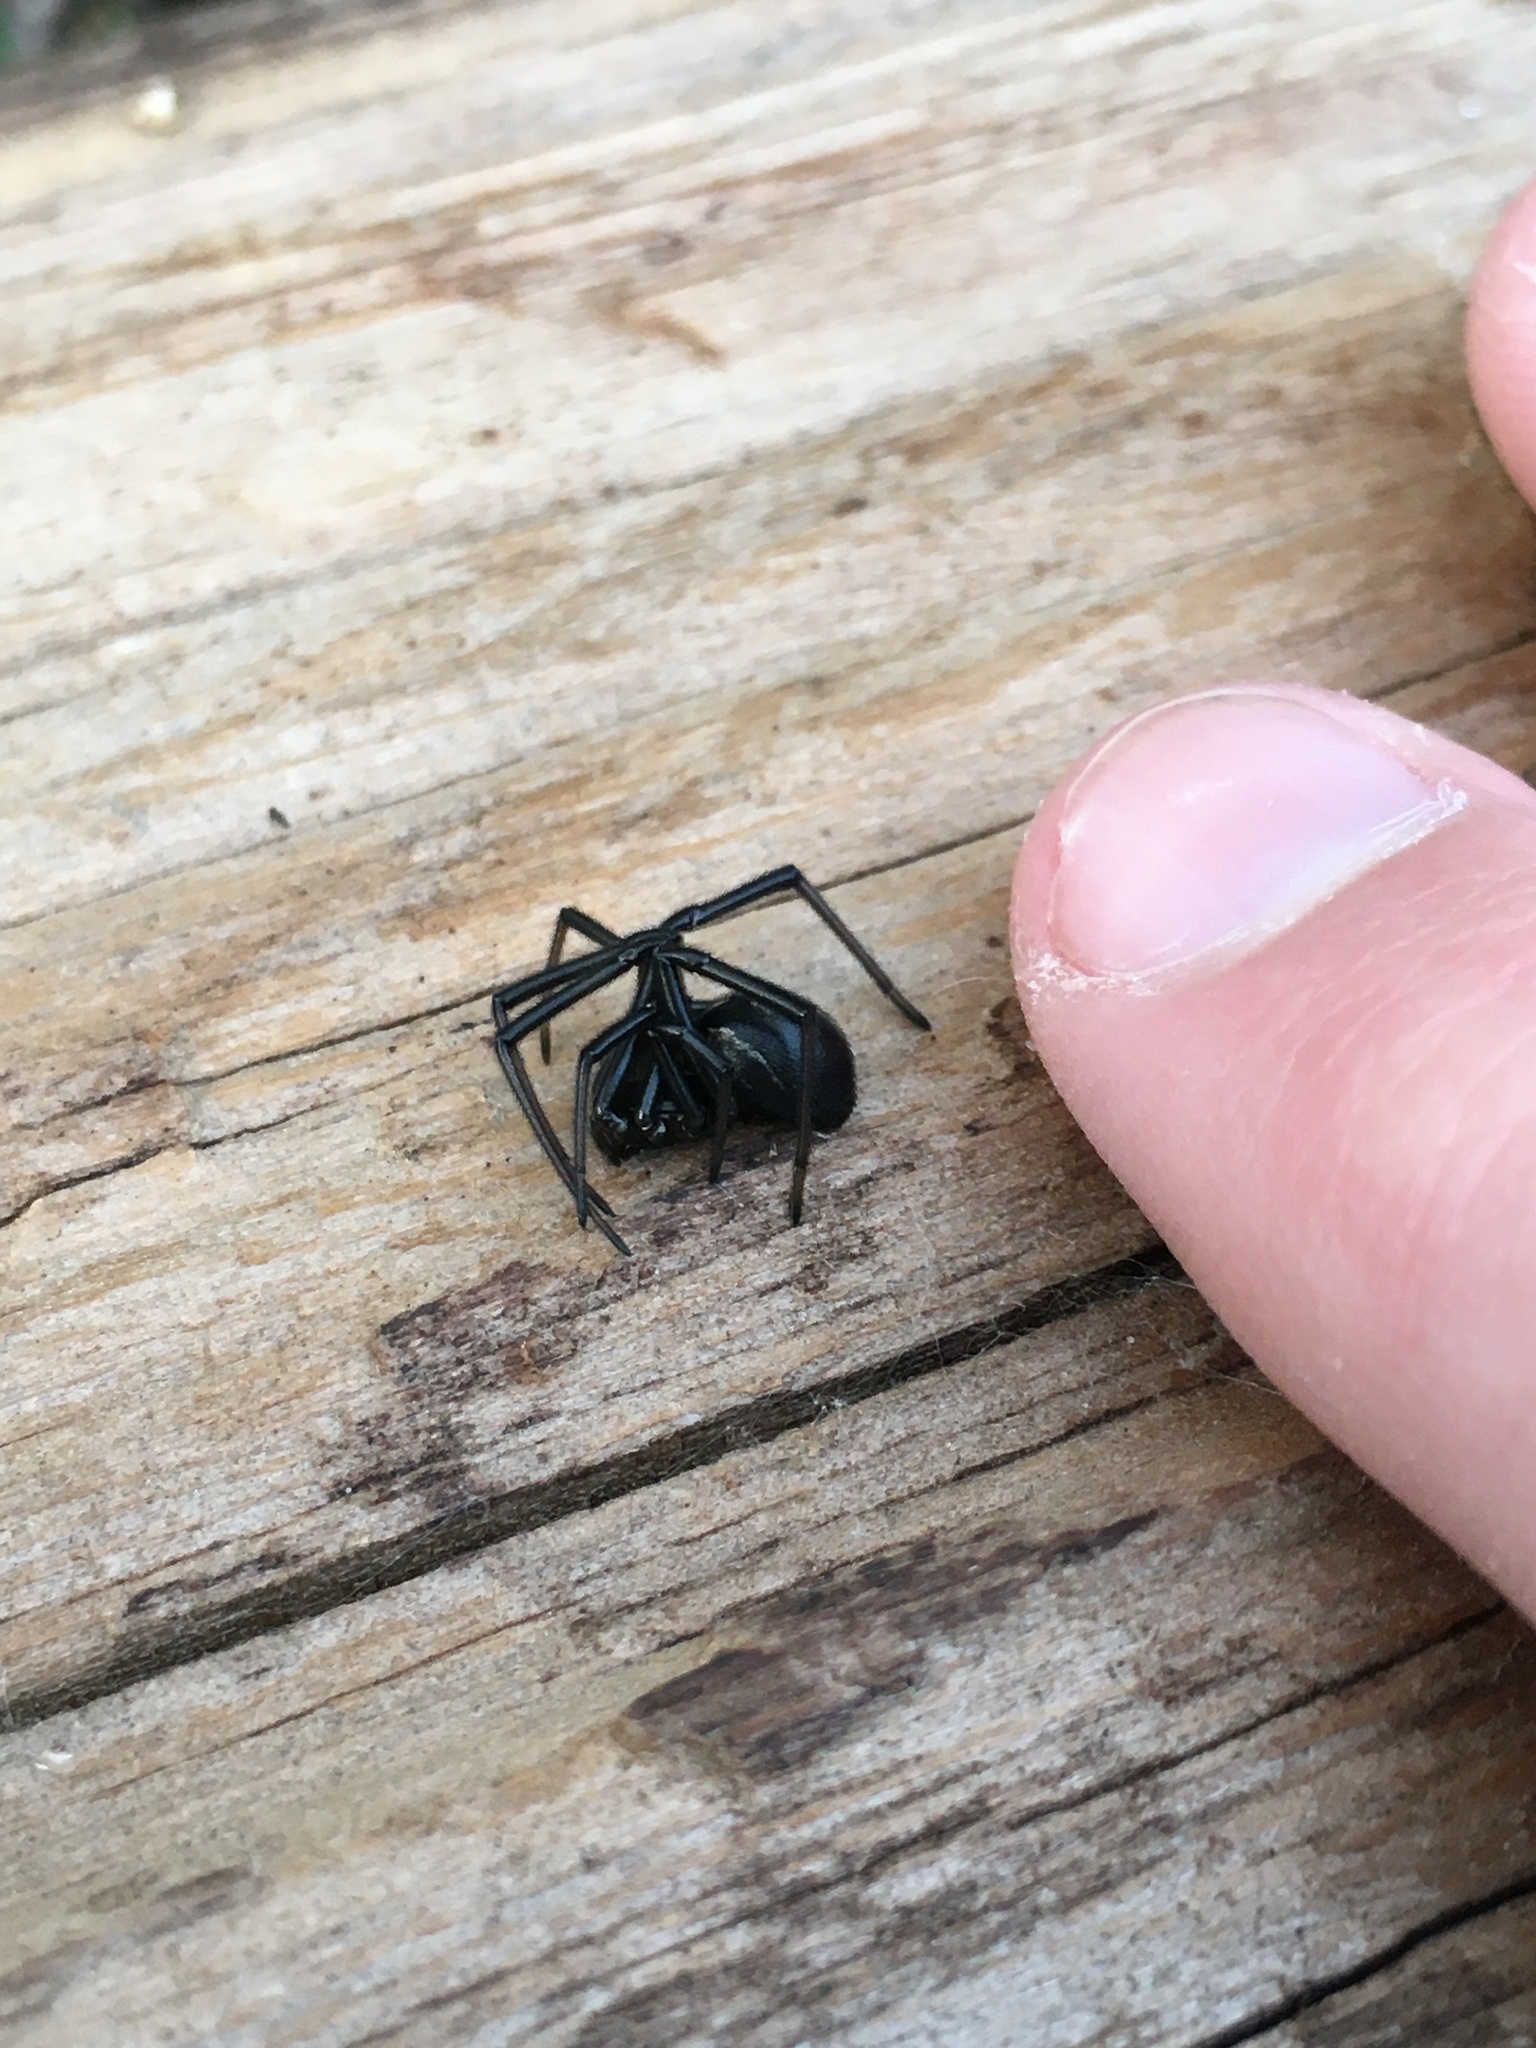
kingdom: Animalia
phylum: Arthropoda
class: Arachnida
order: Araneae
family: Theridiidae
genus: Latrodectus
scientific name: Latrodectus hesperus
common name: Western black widow
